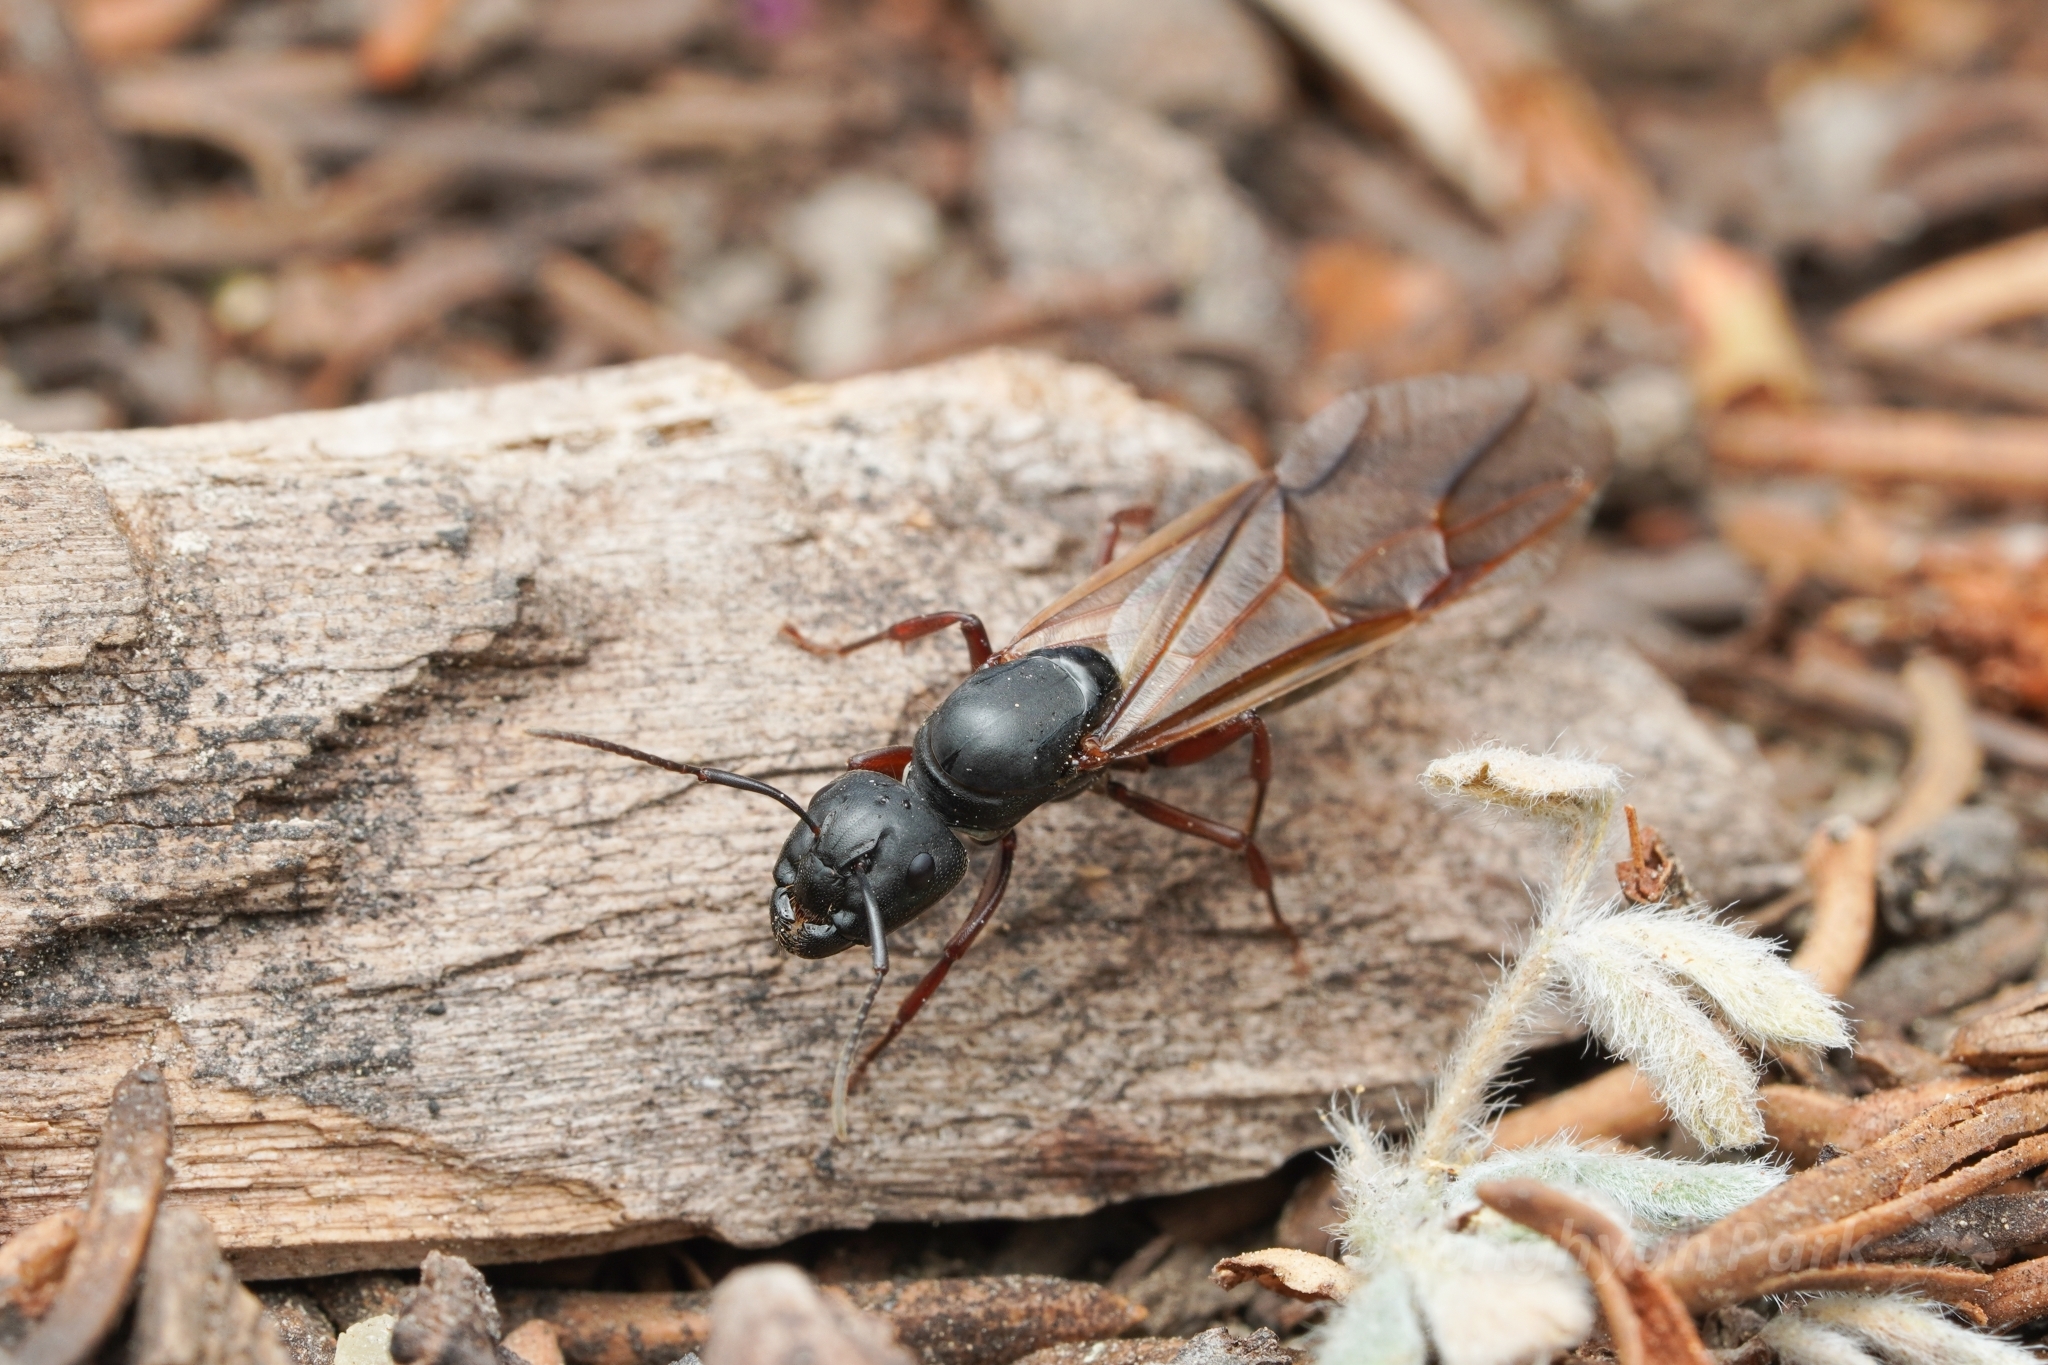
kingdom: Animalia
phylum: Arthropoda
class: Insecta
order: Hymenoptera
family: Formicidae
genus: Camponotus
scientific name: Camponotus modoc
